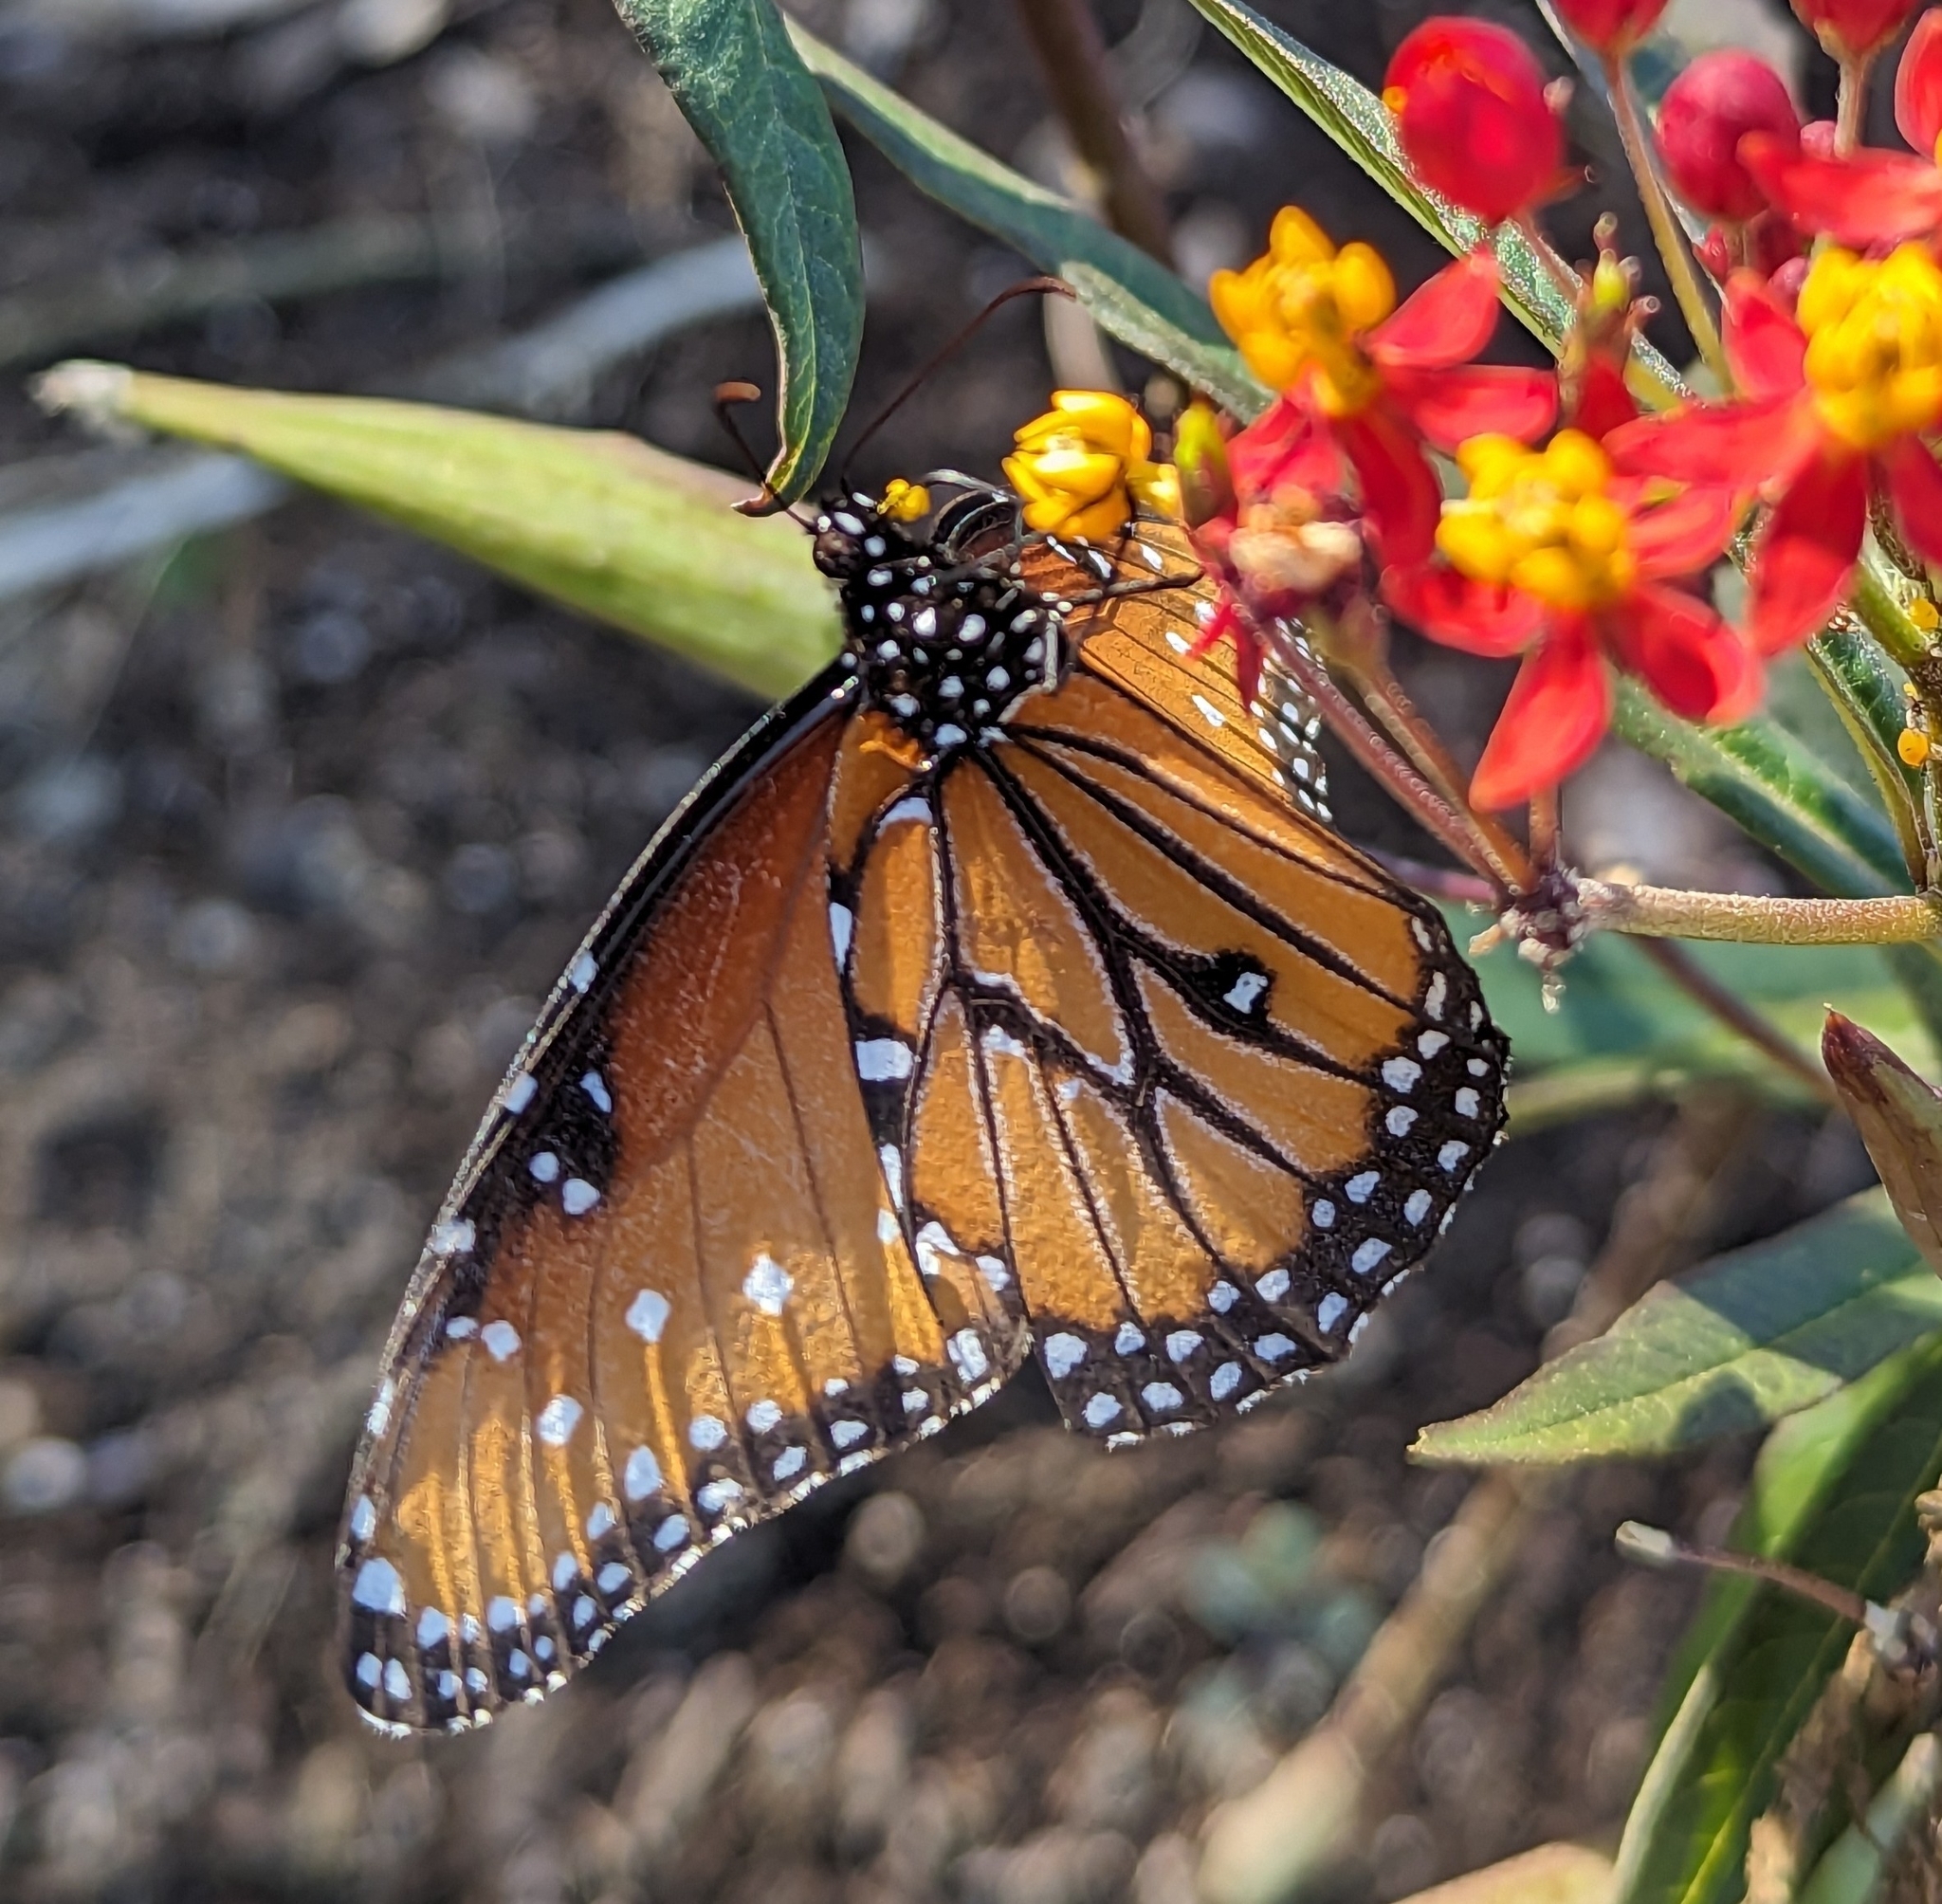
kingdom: Animalia
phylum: Arthropoda
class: Insecta
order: Lepidoptera
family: Nymphalidae
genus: Danaus
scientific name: Danaus gilippus
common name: Queen
